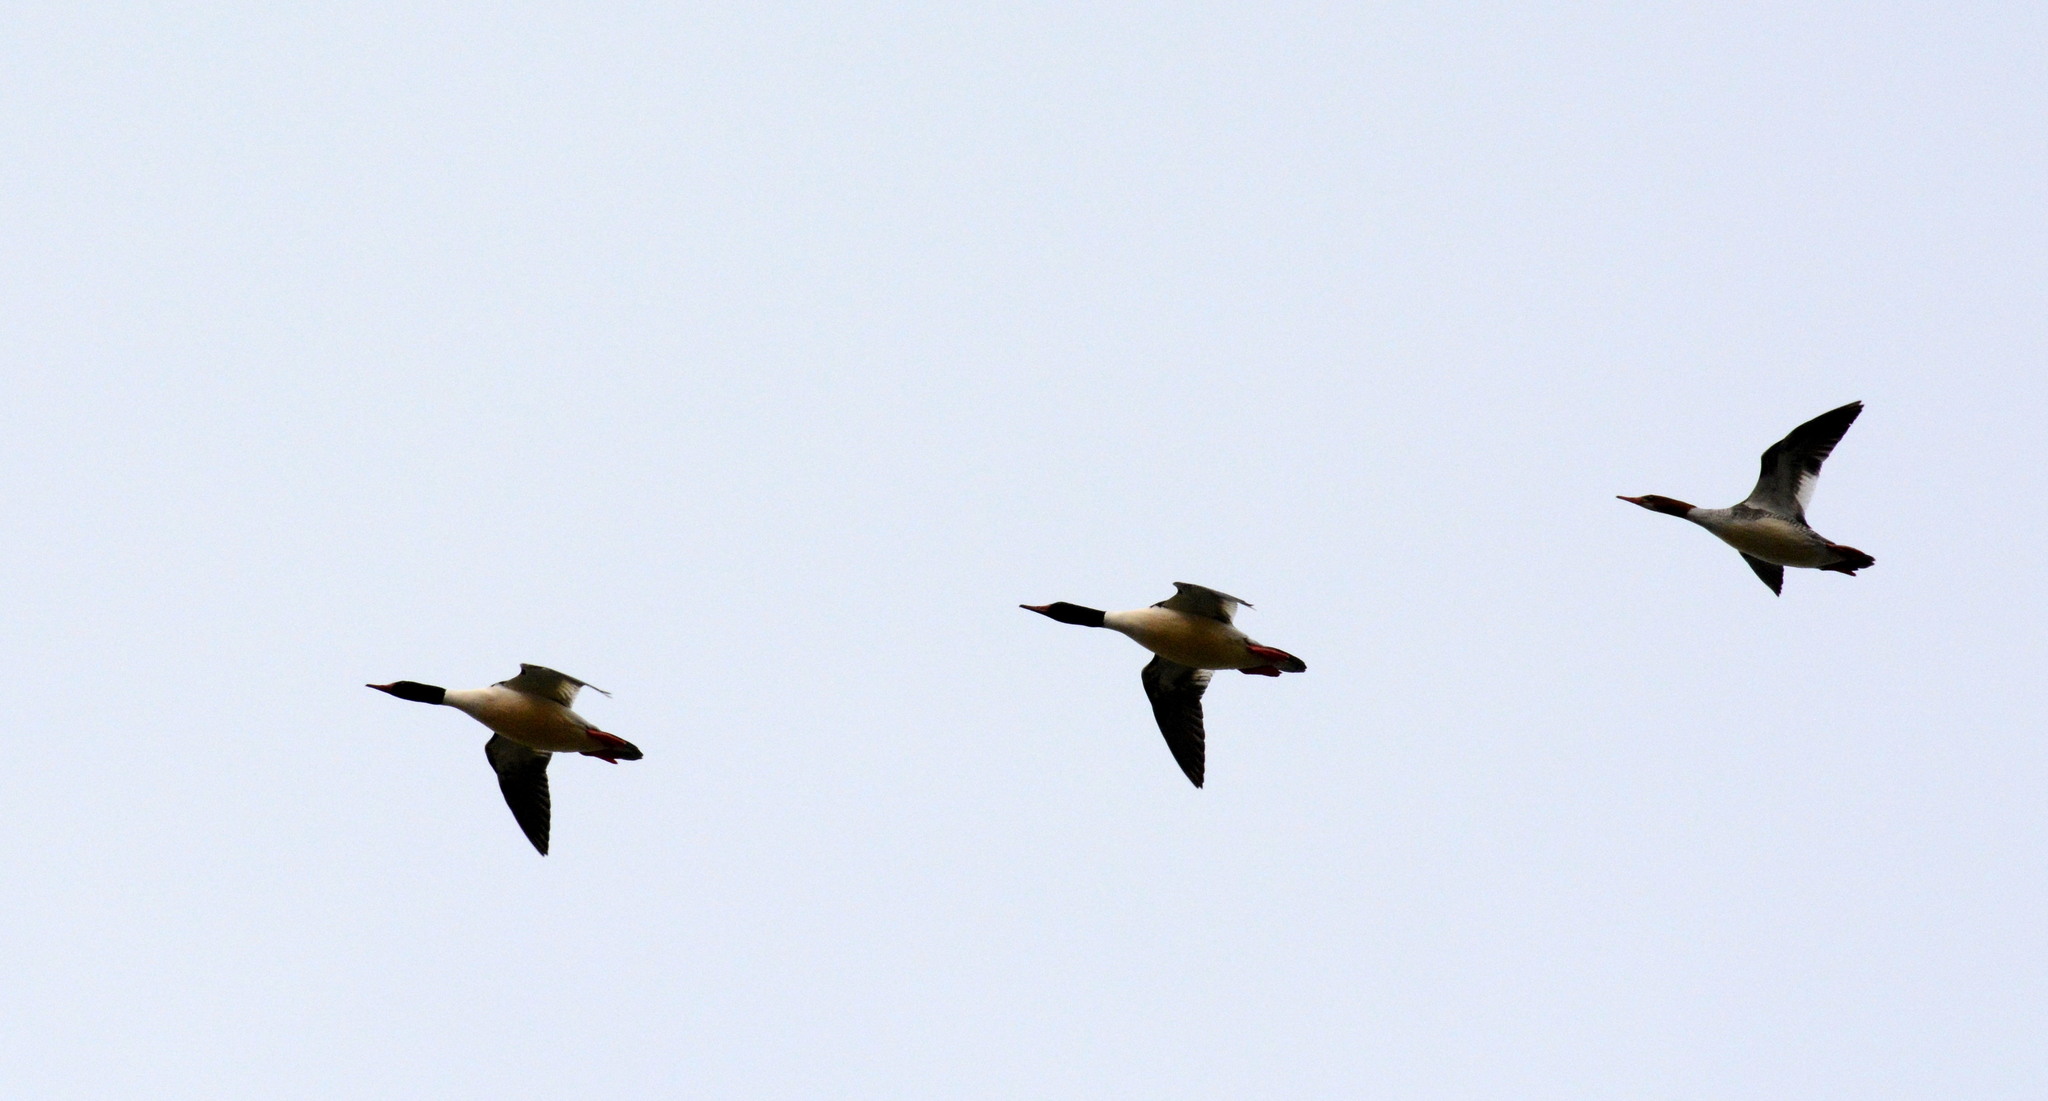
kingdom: Animalia
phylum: Chordata
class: Aves
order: Anseriformes
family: Anatidae
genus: Mergus
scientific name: Mergus merganser
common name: Common merganser
